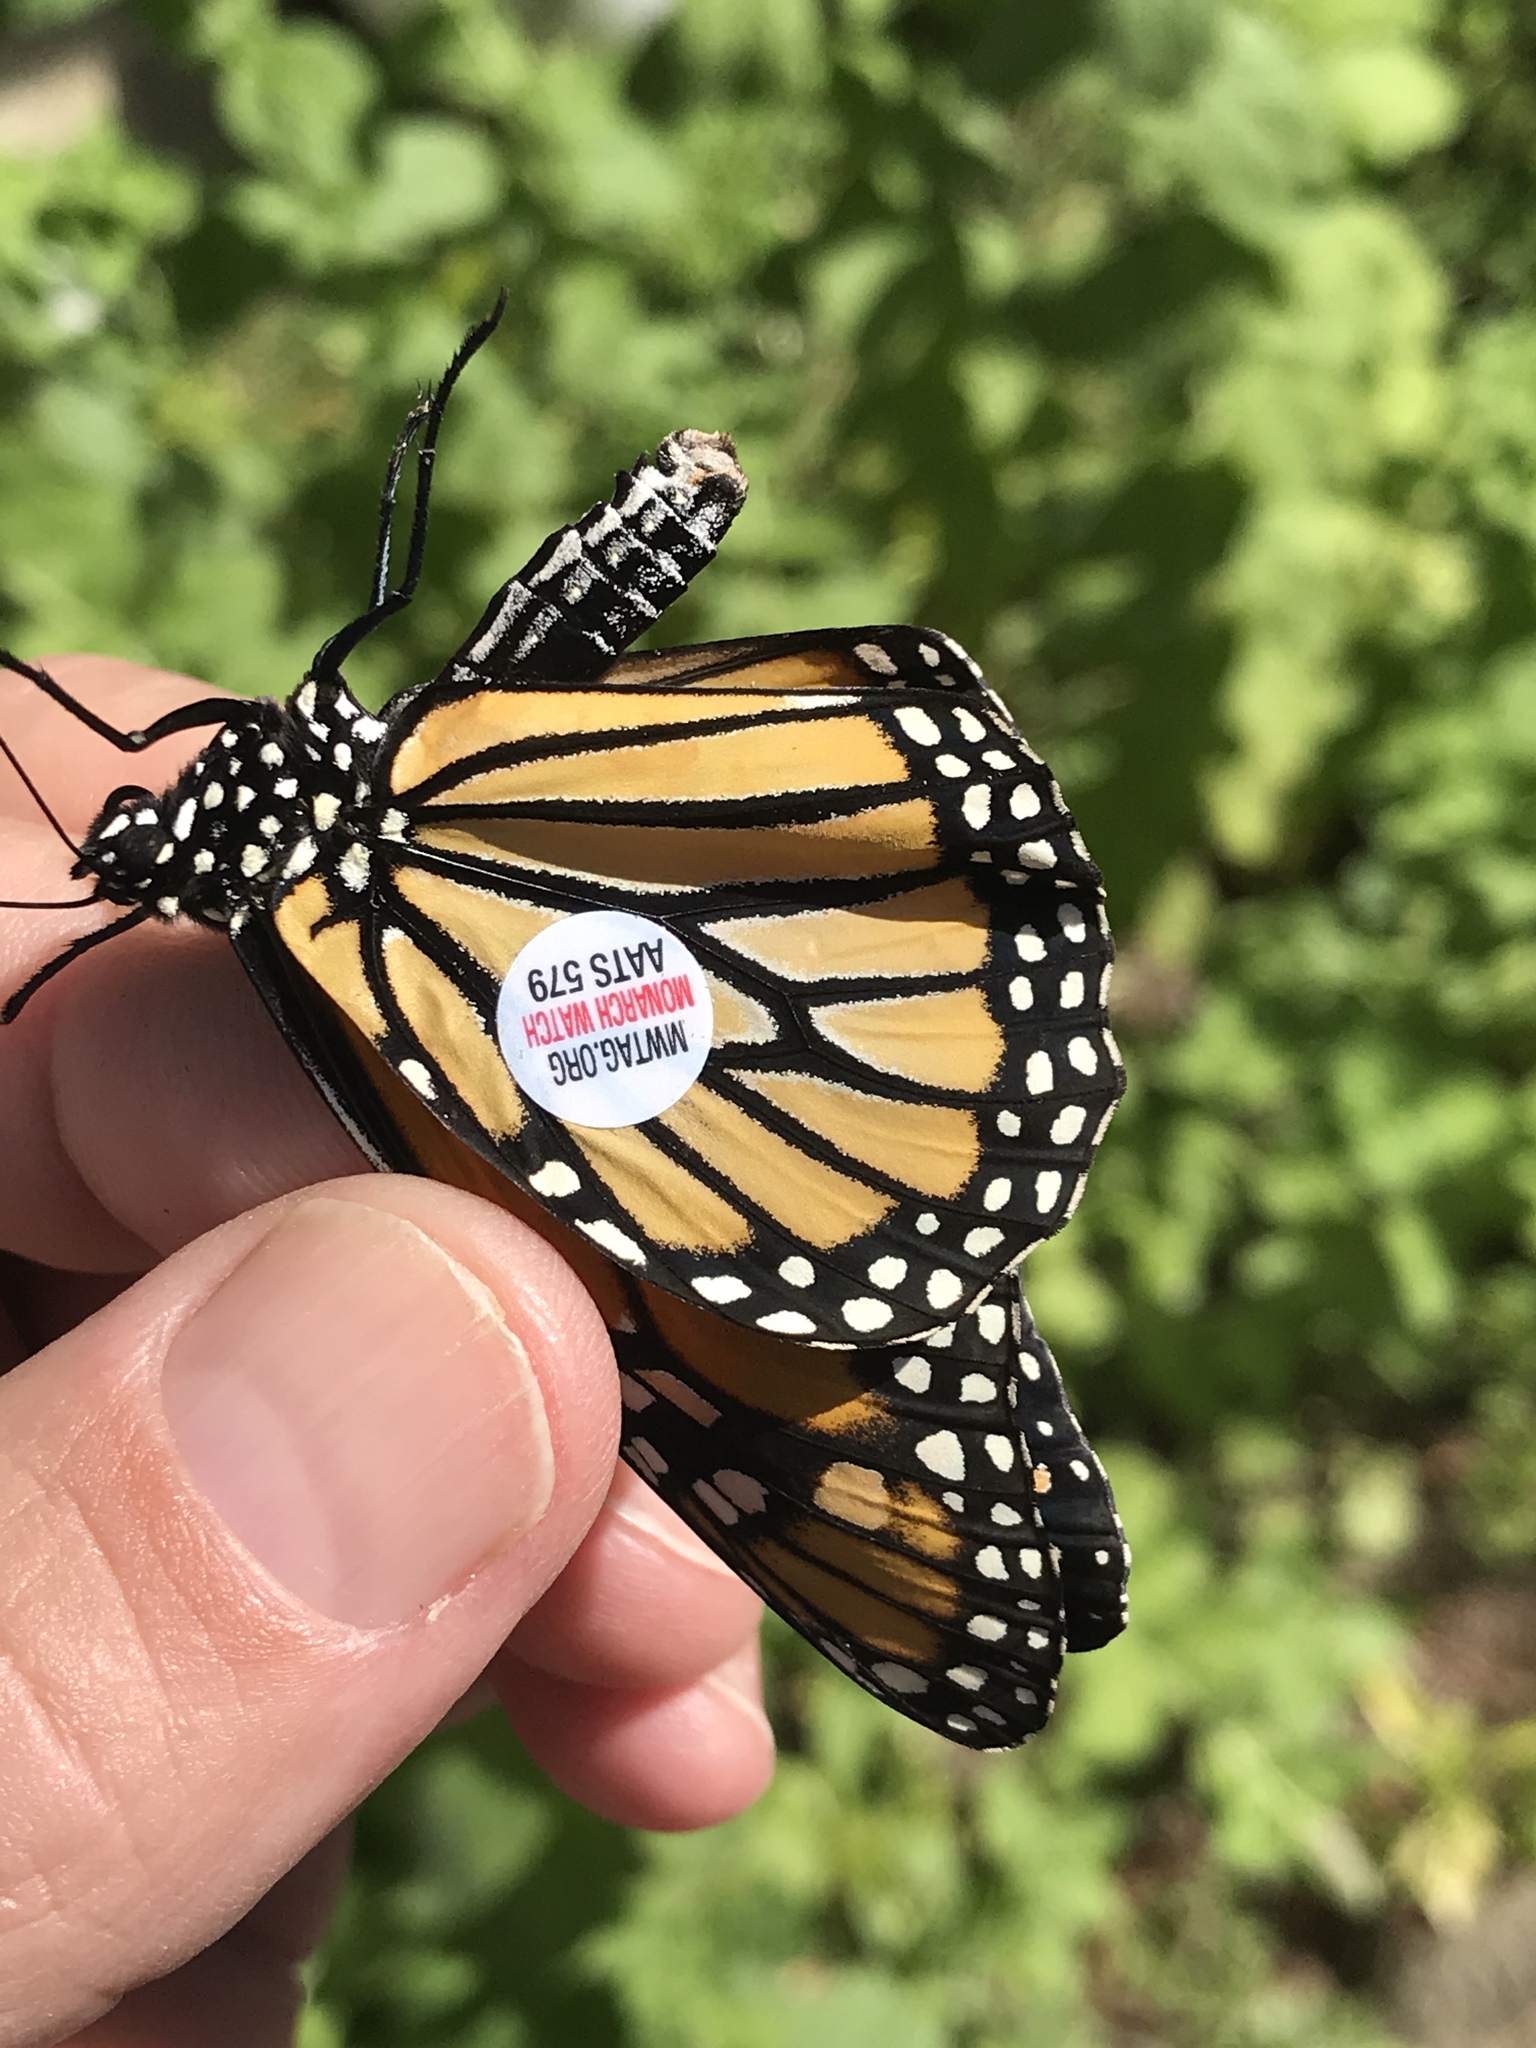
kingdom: Animalia
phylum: Arthropoda
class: Insecta
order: Lepidoptera
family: Nymphalidae
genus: Danaus
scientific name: Danaus plexippus
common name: Monarch
